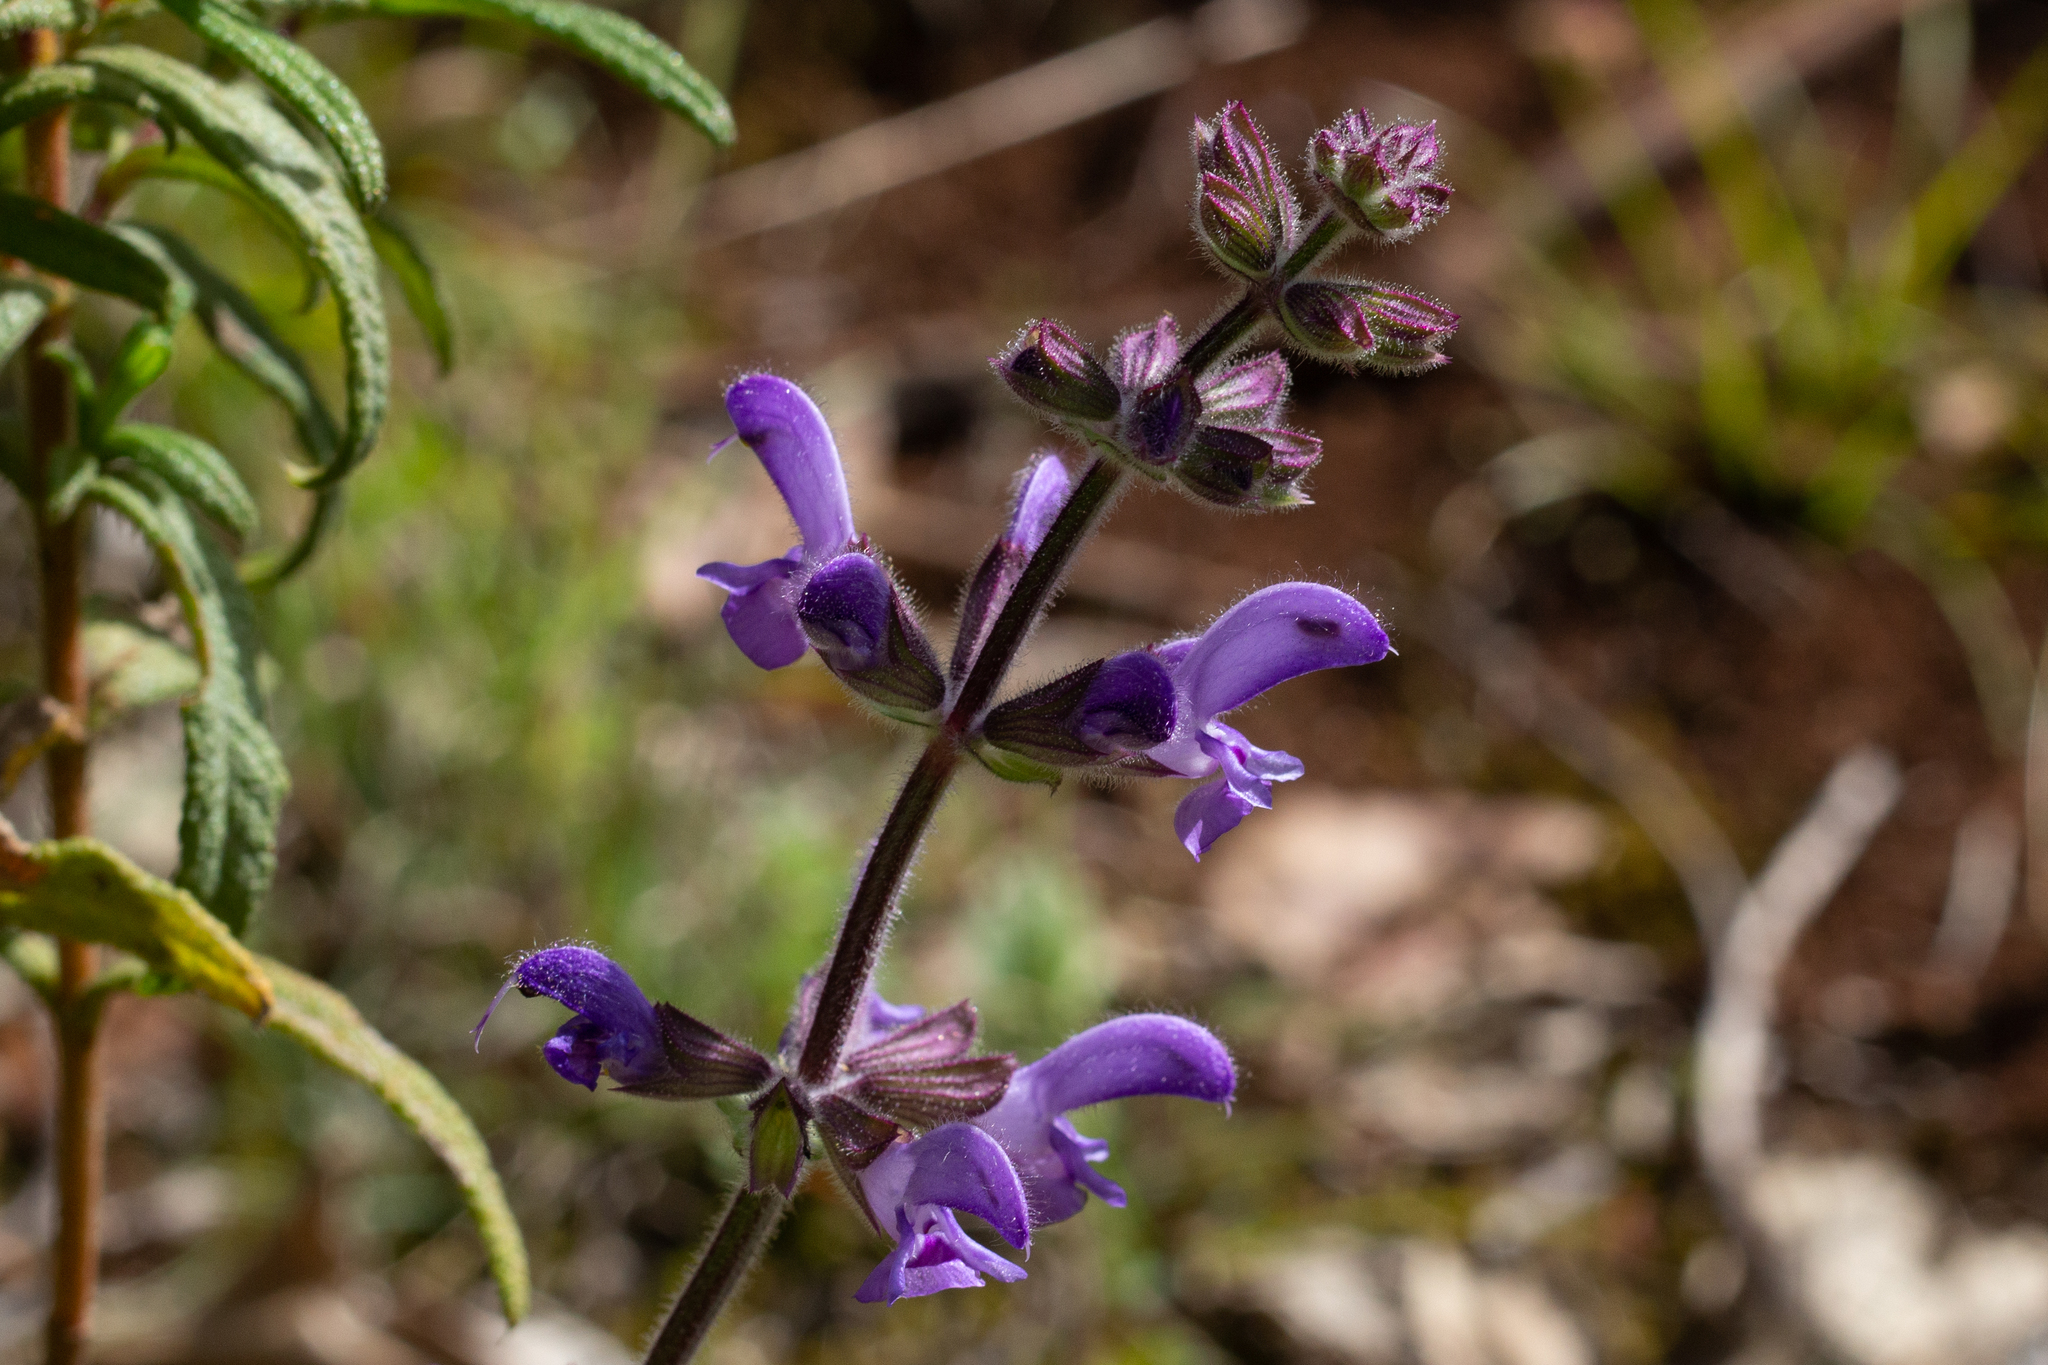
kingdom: Plantae
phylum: Tracheophyta
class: Magnoliopsida
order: Lamiales
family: Lamiaceae
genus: Salvia
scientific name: Salvia sclareoides
